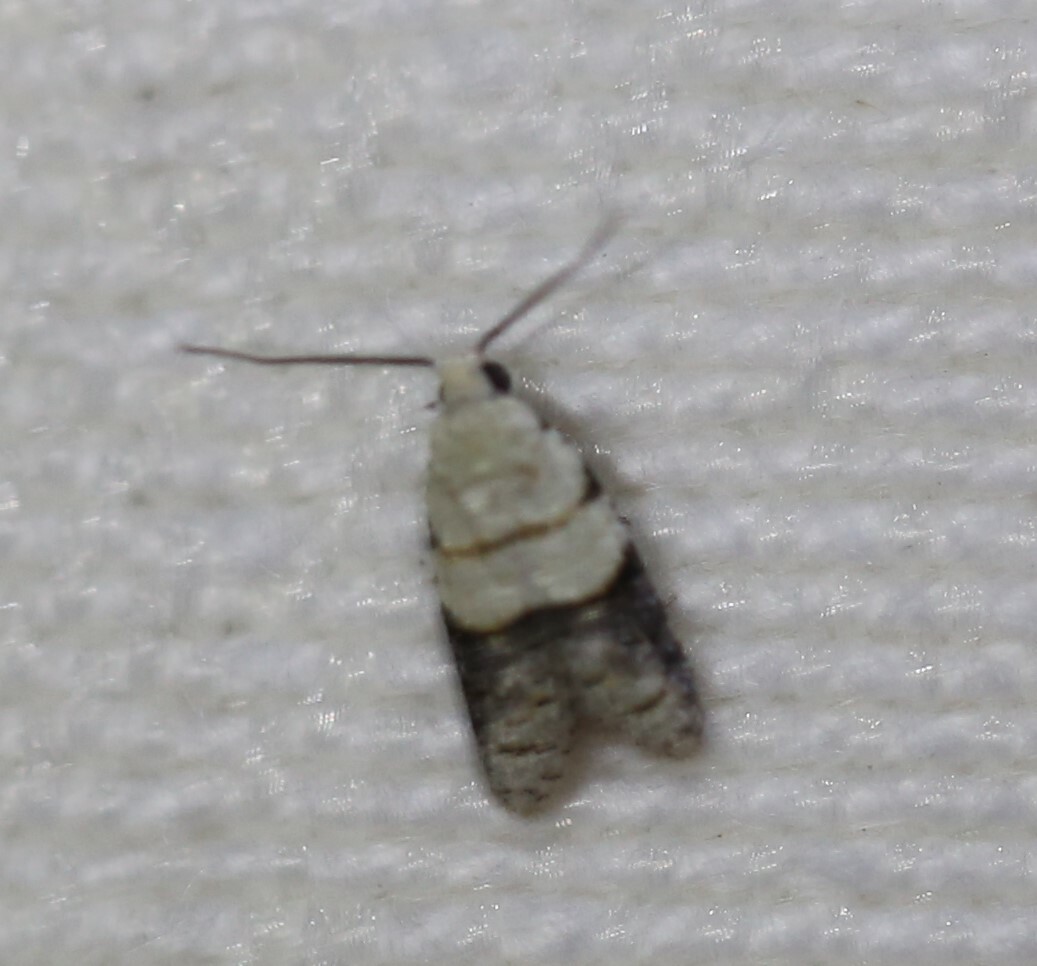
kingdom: Animalia
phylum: Arthropoda
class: Insecta
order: Lepidoptera
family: Tortricidae
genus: Tracholena
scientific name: Tracholena sulfurosa
